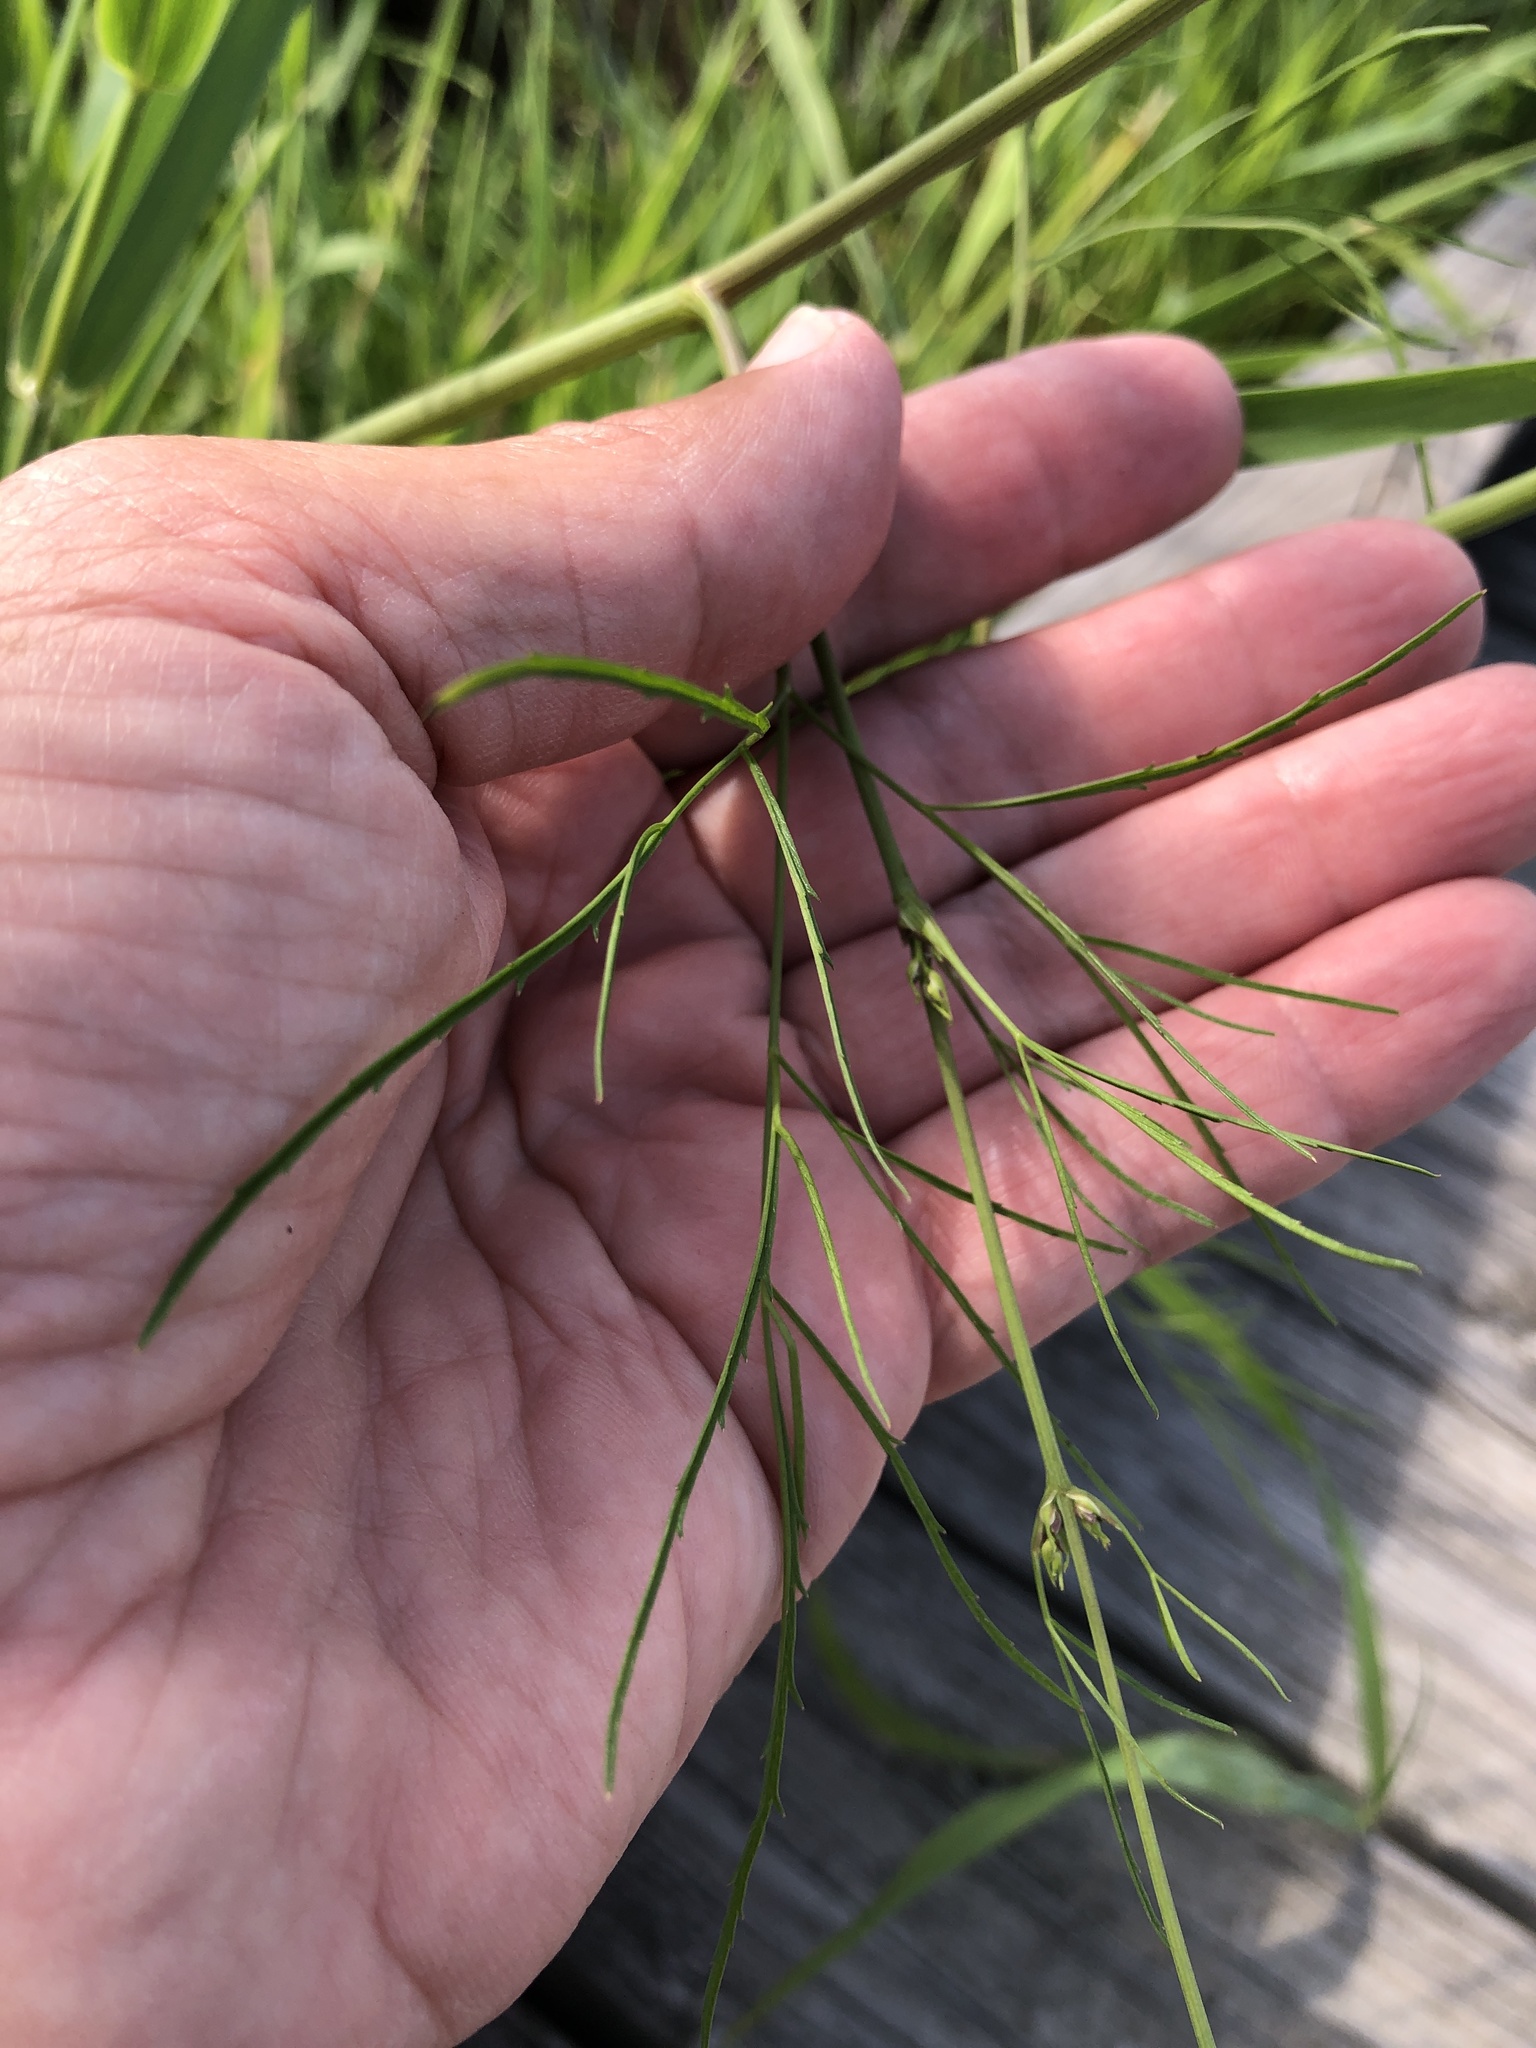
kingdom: Plantae
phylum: Tracheophyta
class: Magnoliopsida
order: Apiales
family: Apiaceae
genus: Cicuta
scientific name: Cicuta bulbifera
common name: Bulb-bearing water-hemlock
